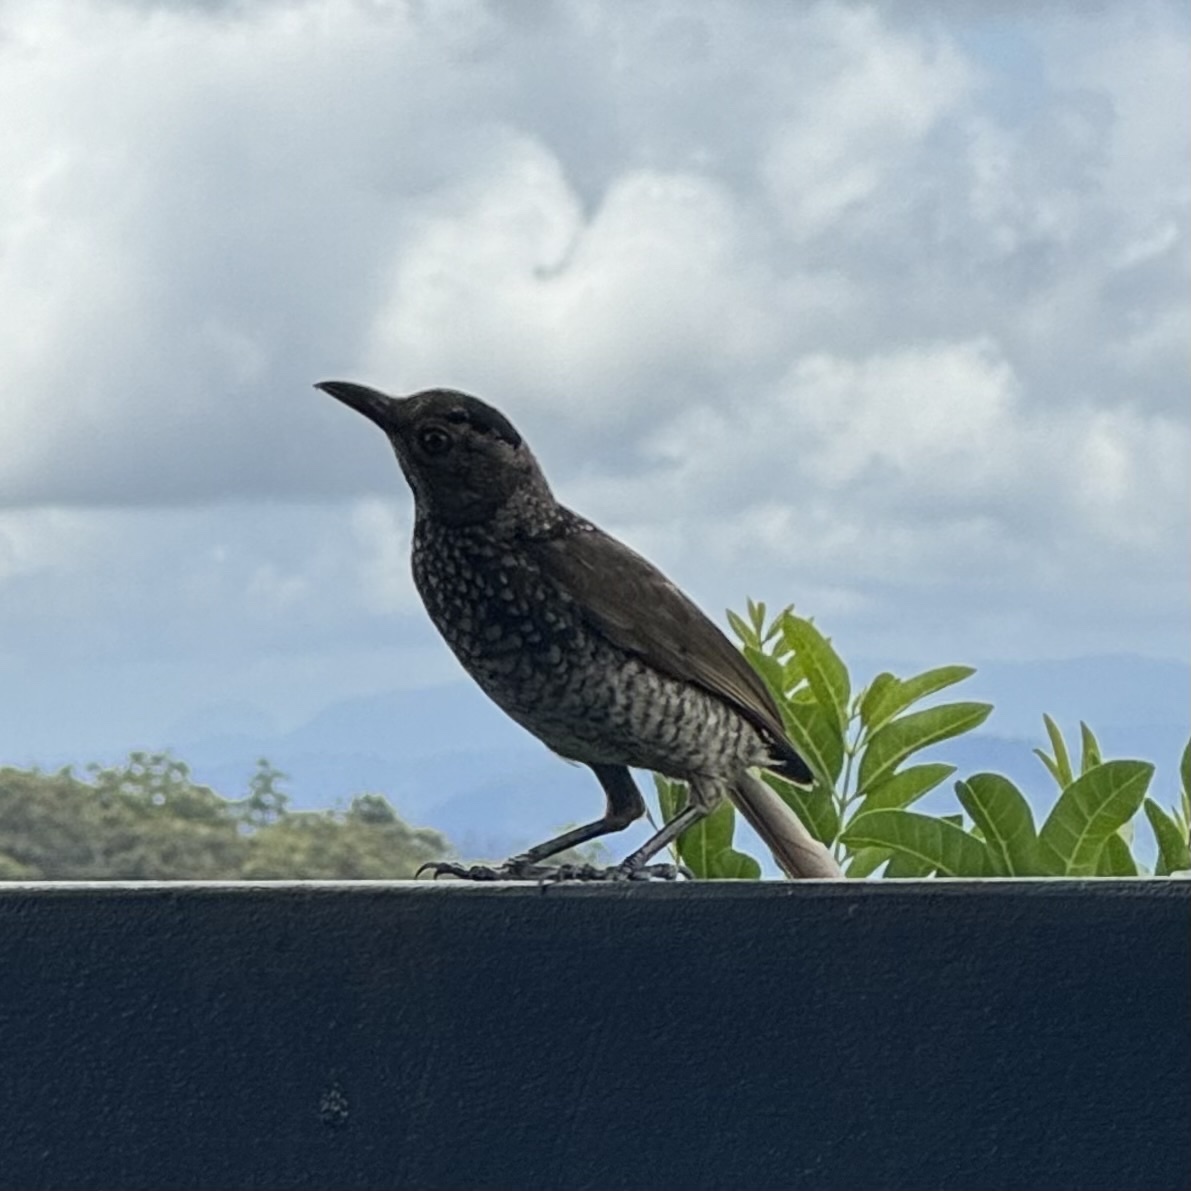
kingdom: Animalia
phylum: Chordata
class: Aves
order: Passeriformes
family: Ptilonorhynchidae
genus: Sericulus
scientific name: Sericulus chrysocephalus
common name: Regent bowerbird
